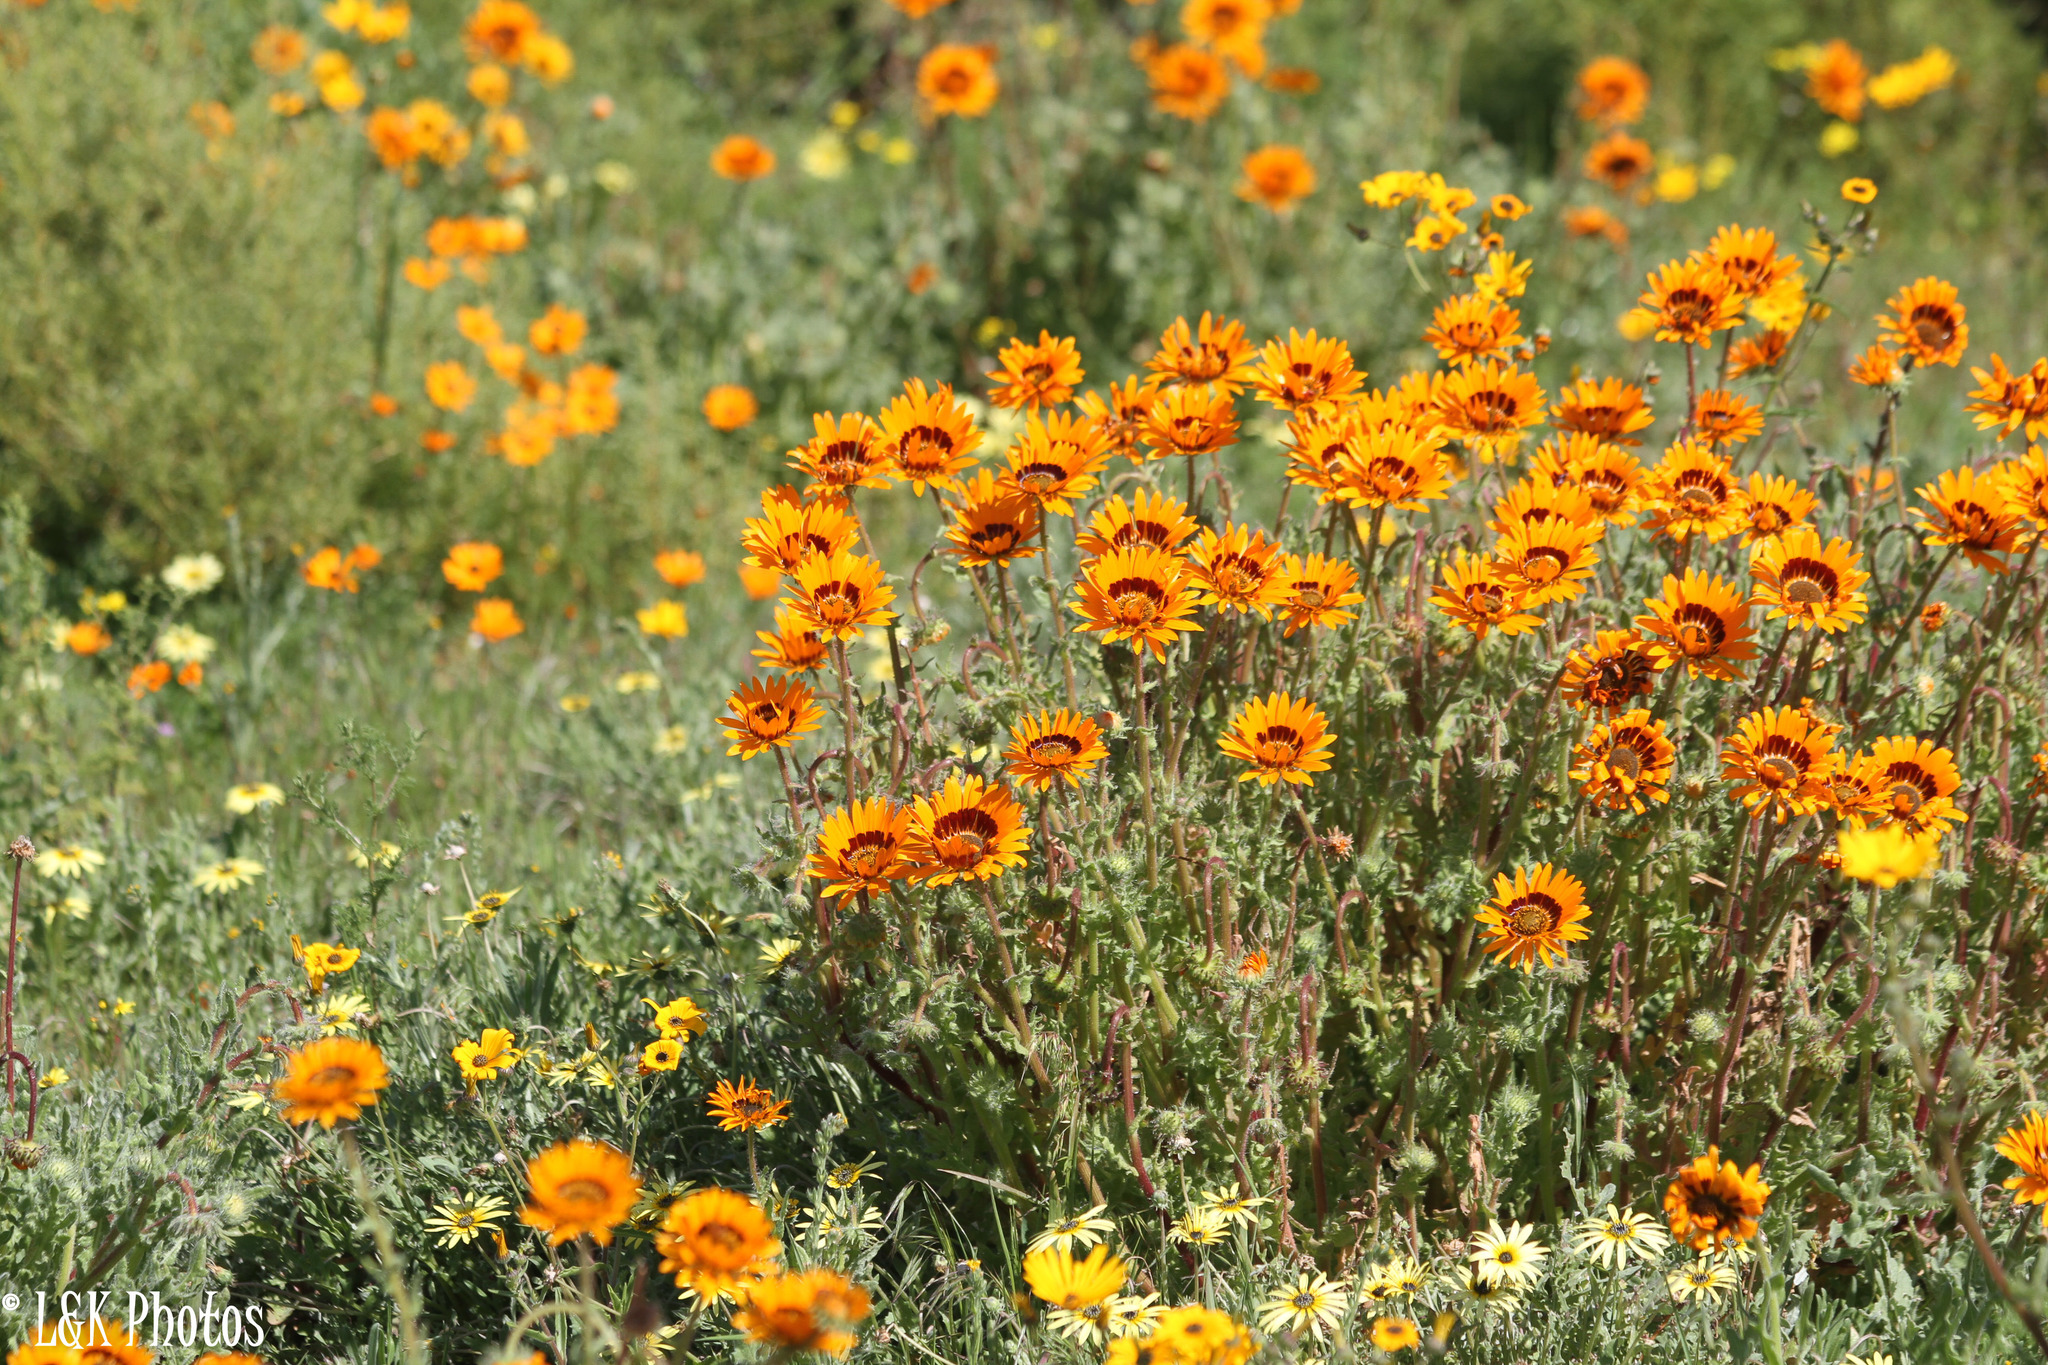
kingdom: Plantae
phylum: Tracheophyta
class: Magnoliopsida
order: Asterales
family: Asteraceae
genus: Arctotis
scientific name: Arctotis fastuosa
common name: Monarch of the veld
